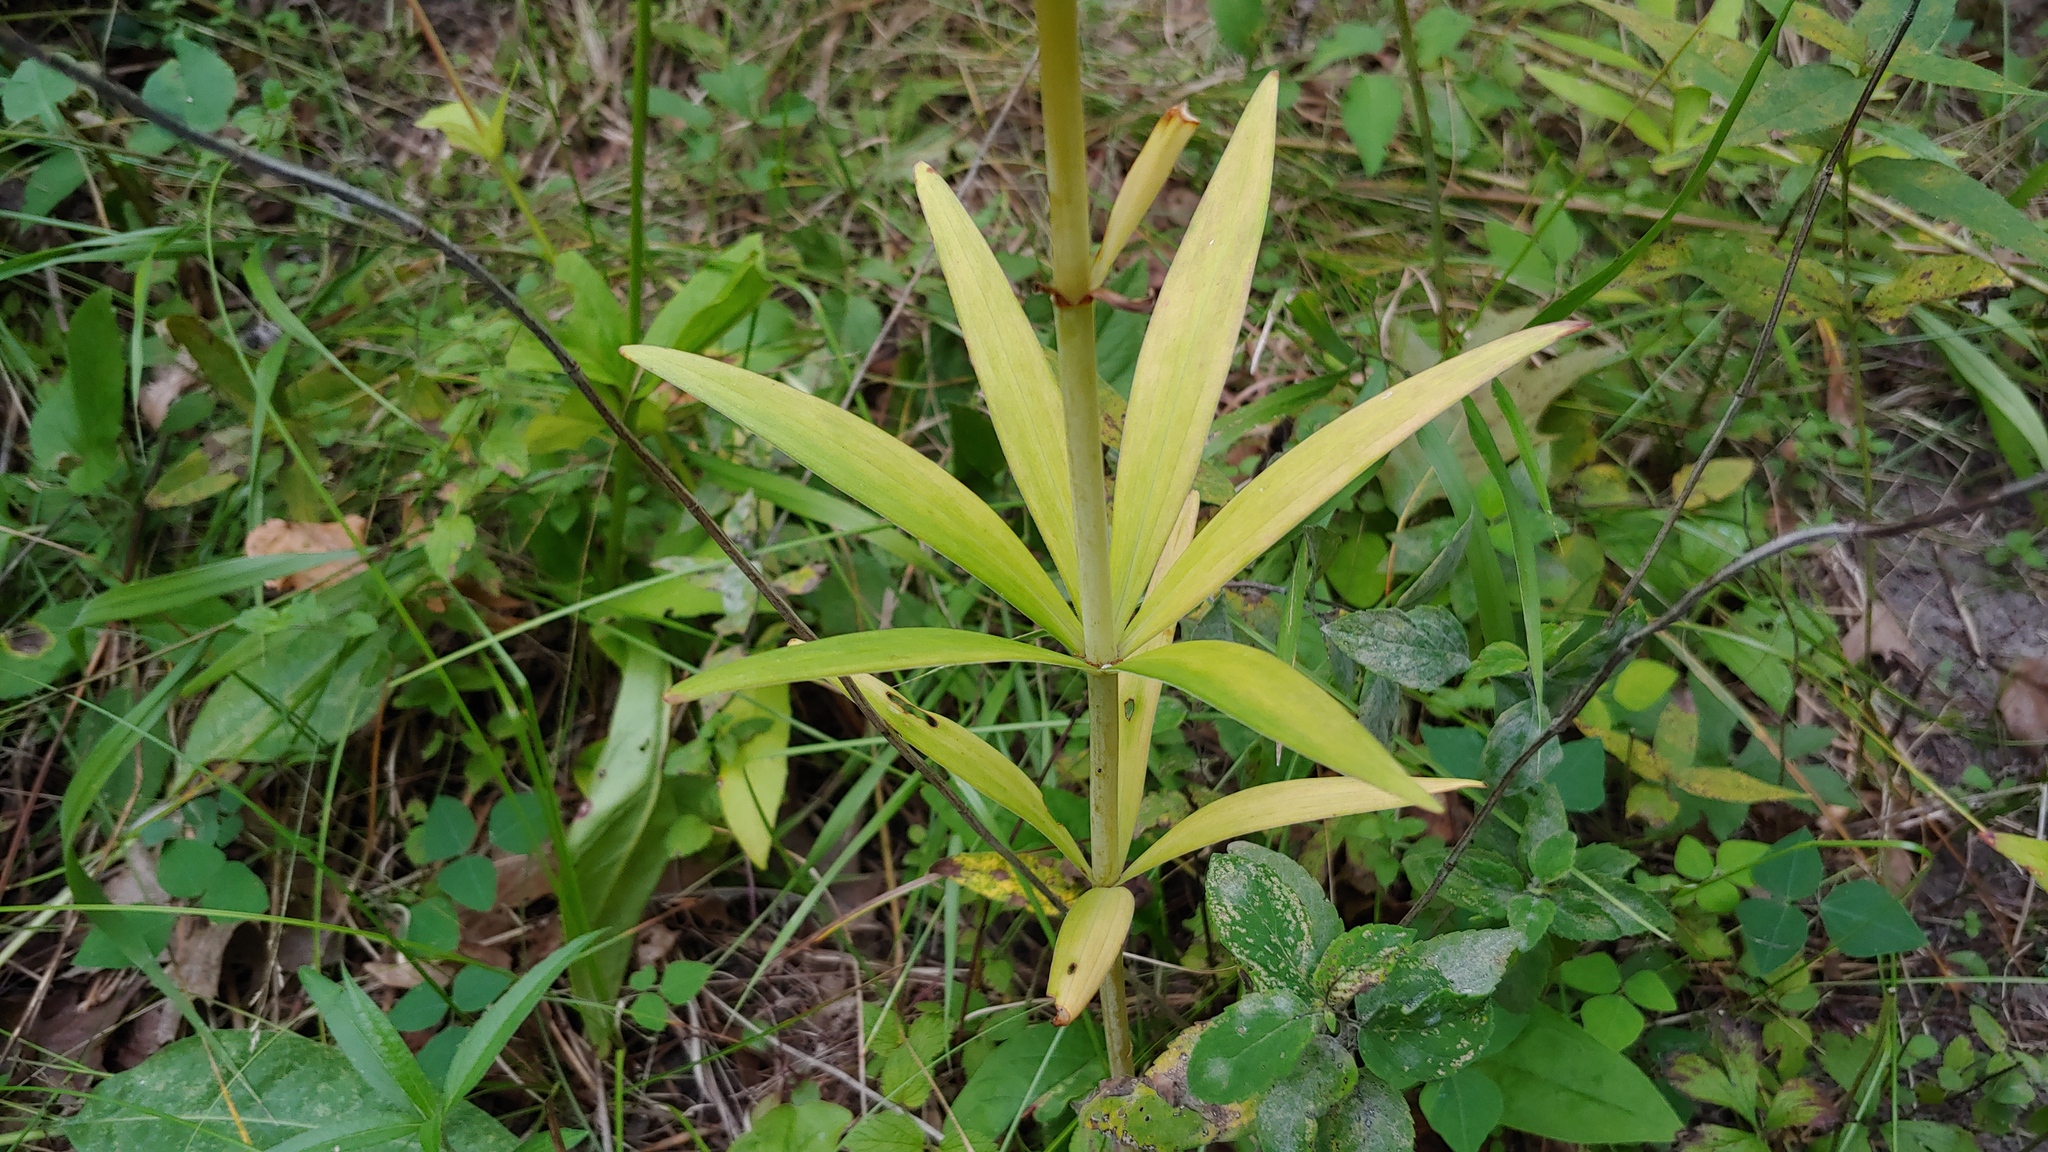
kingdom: Plantae
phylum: Tracheophyta
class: Liliopsida
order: Liliales
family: Liliaceae
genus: Lilium
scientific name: Lilium michiganense
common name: Michigan lily
